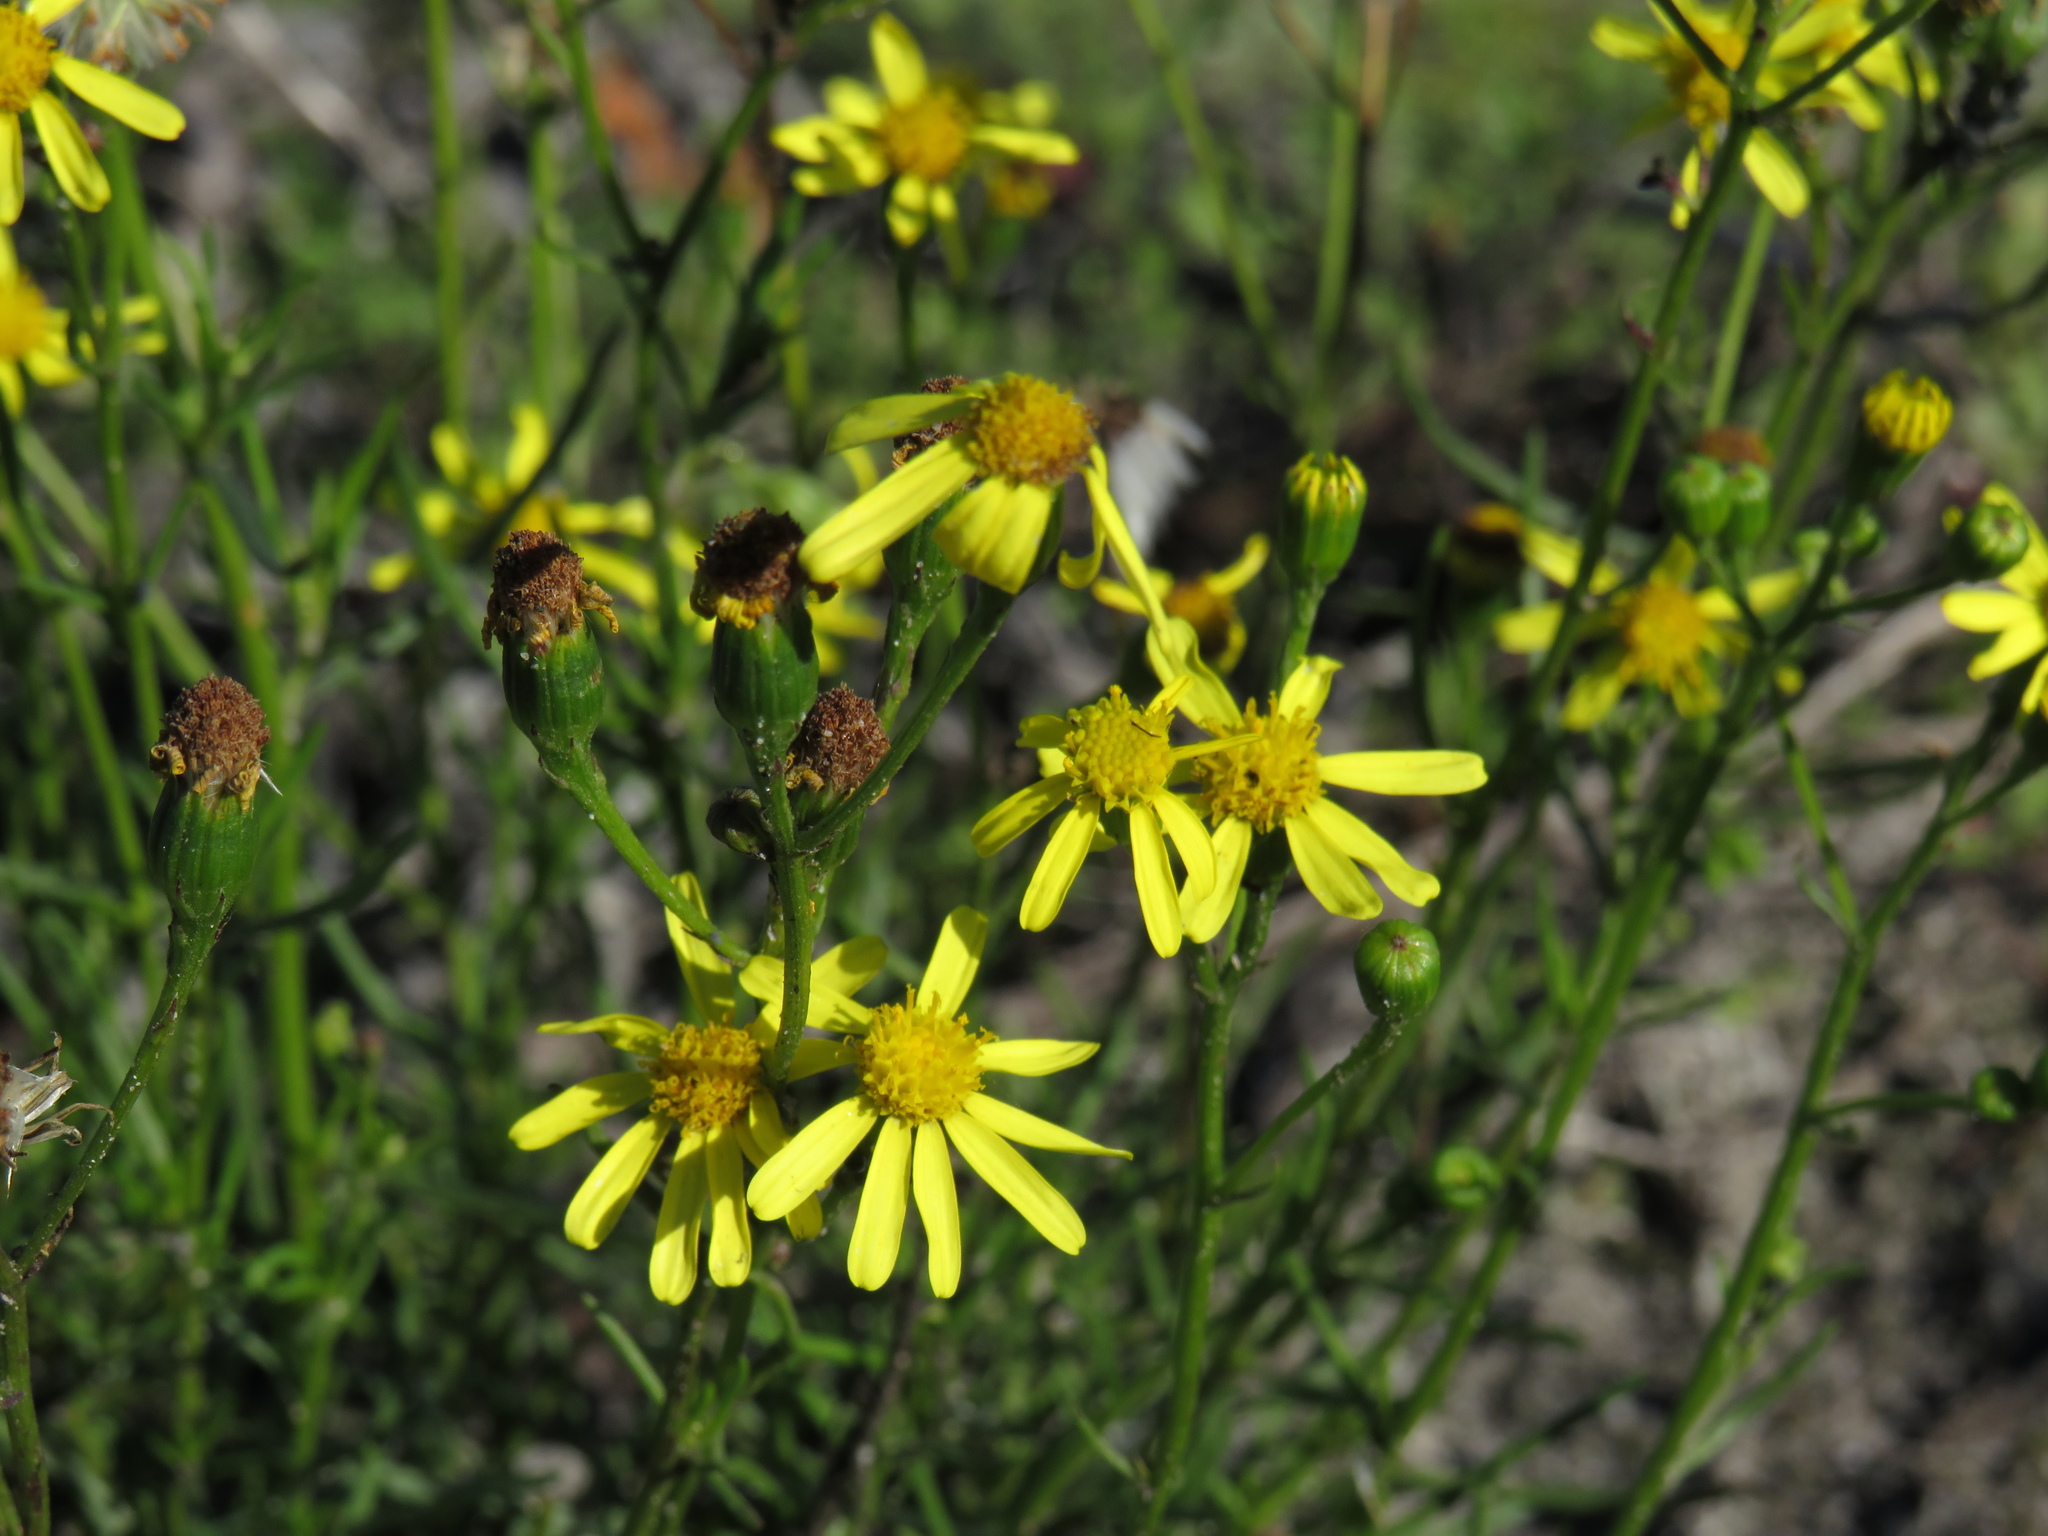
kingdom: Plantae
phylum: Tracheophyta
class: Magnoliopsida
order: Asterales
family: Asteraceae
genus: Senecio
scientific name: Senecio burchellii
